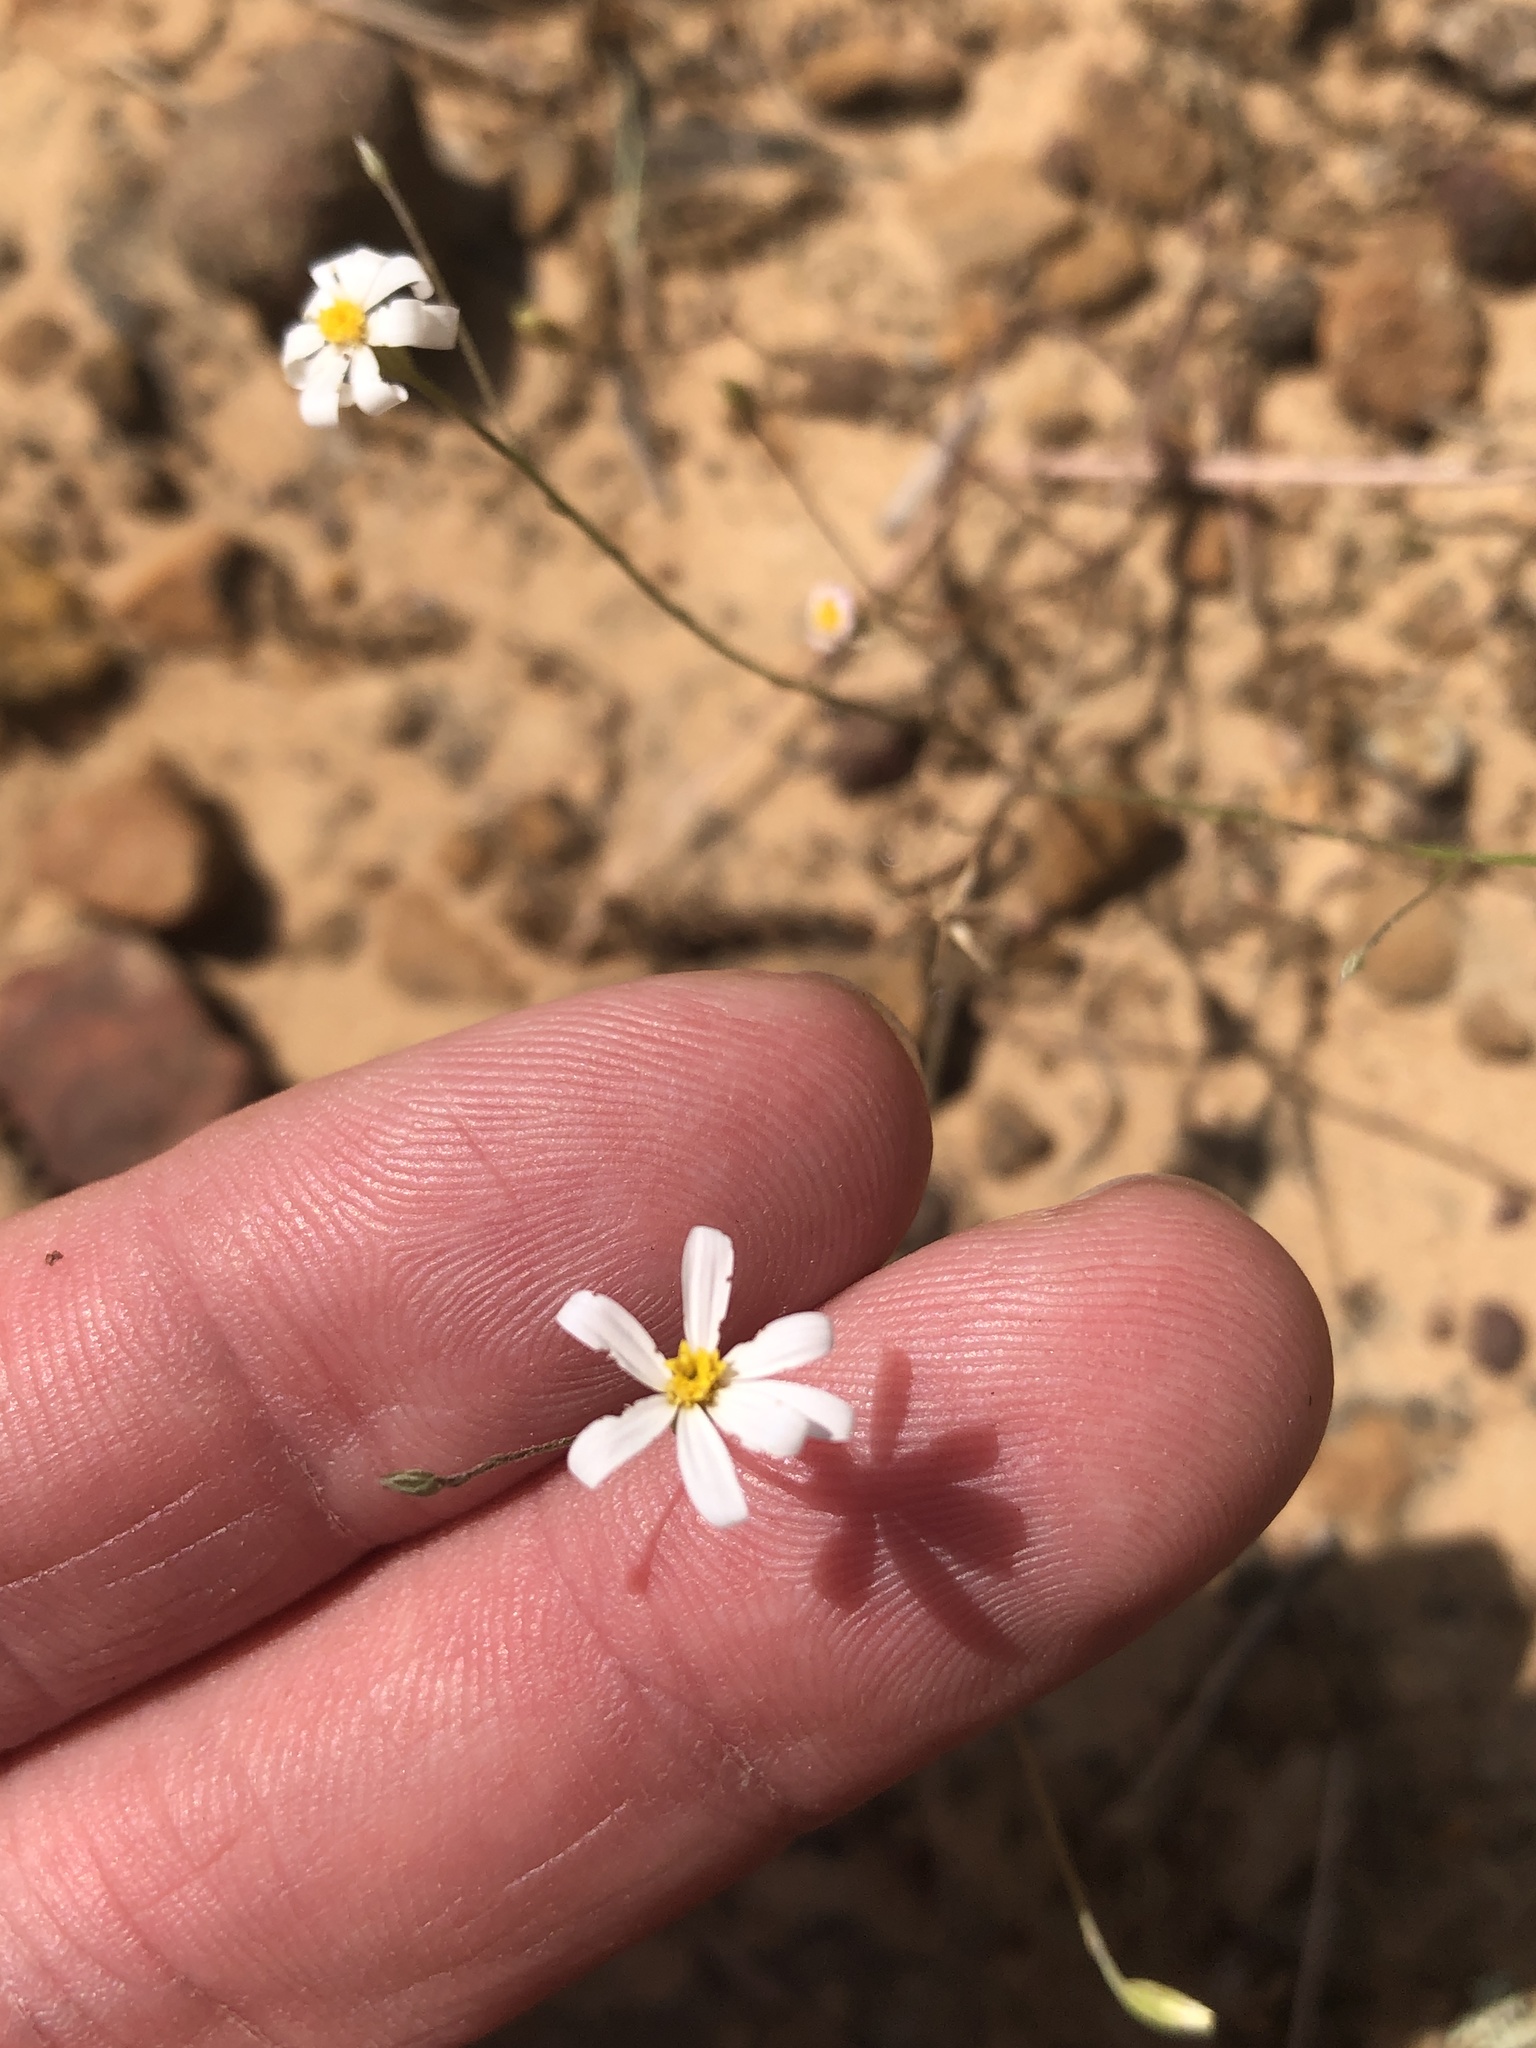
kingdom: Plantae
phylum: Tracheophyta
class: Magnoliopsida
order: Asterales
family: Asteraceae
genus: Chaetopappa
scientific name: Chaetopappa asteroides
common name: Tiny lazy daisy
